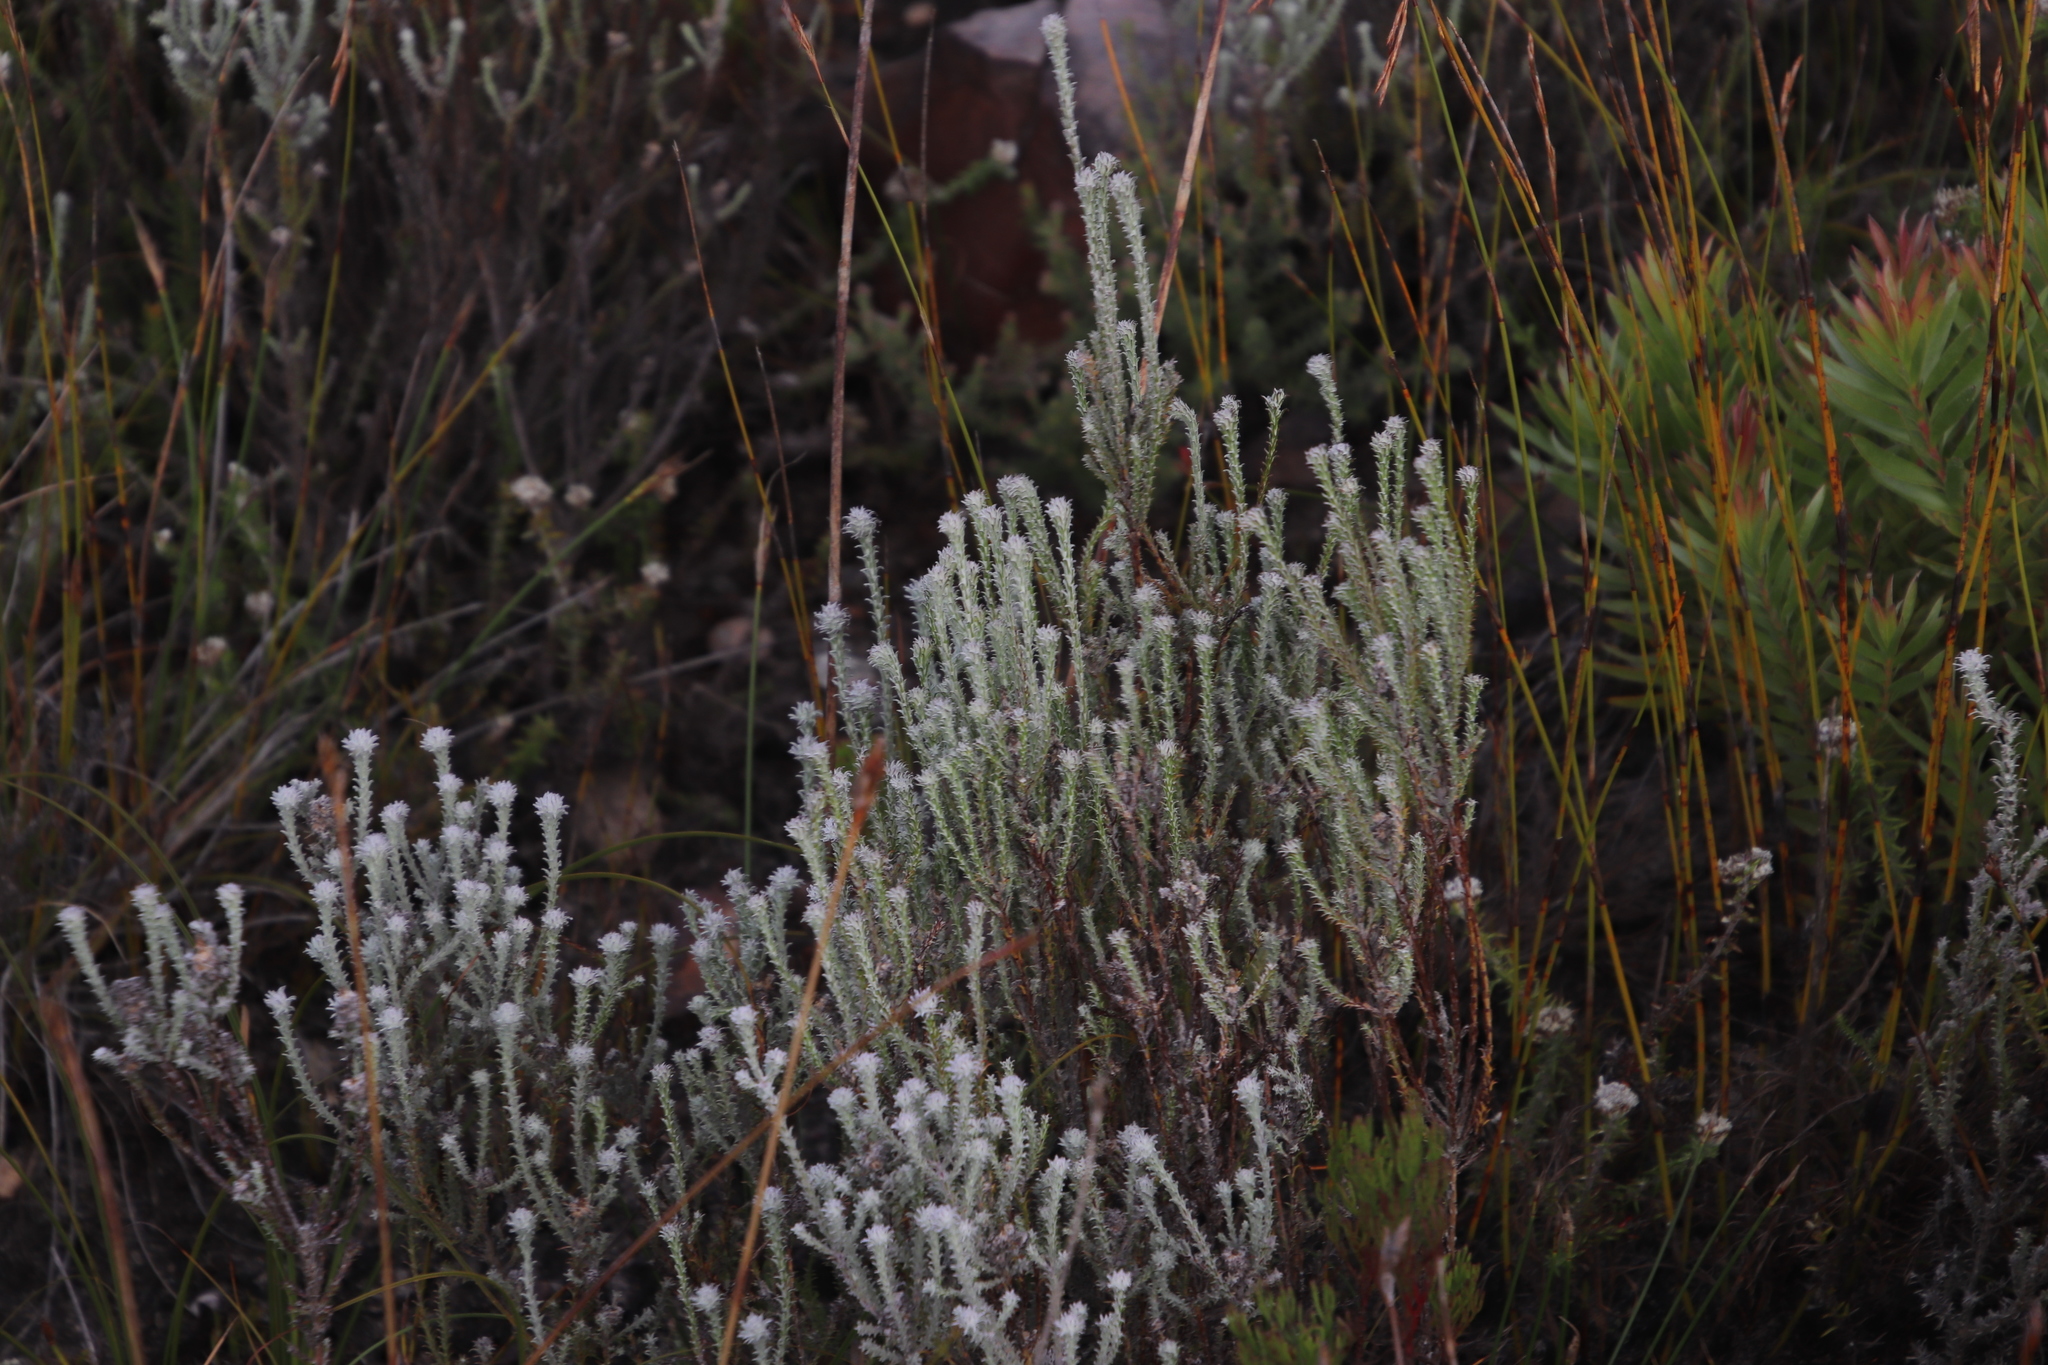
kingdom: Plantae
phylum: Tracheophyta
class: Magnoliopsida
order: Asterales
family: Asteraceae
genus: Seriphium
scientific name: Seriphium incanum
